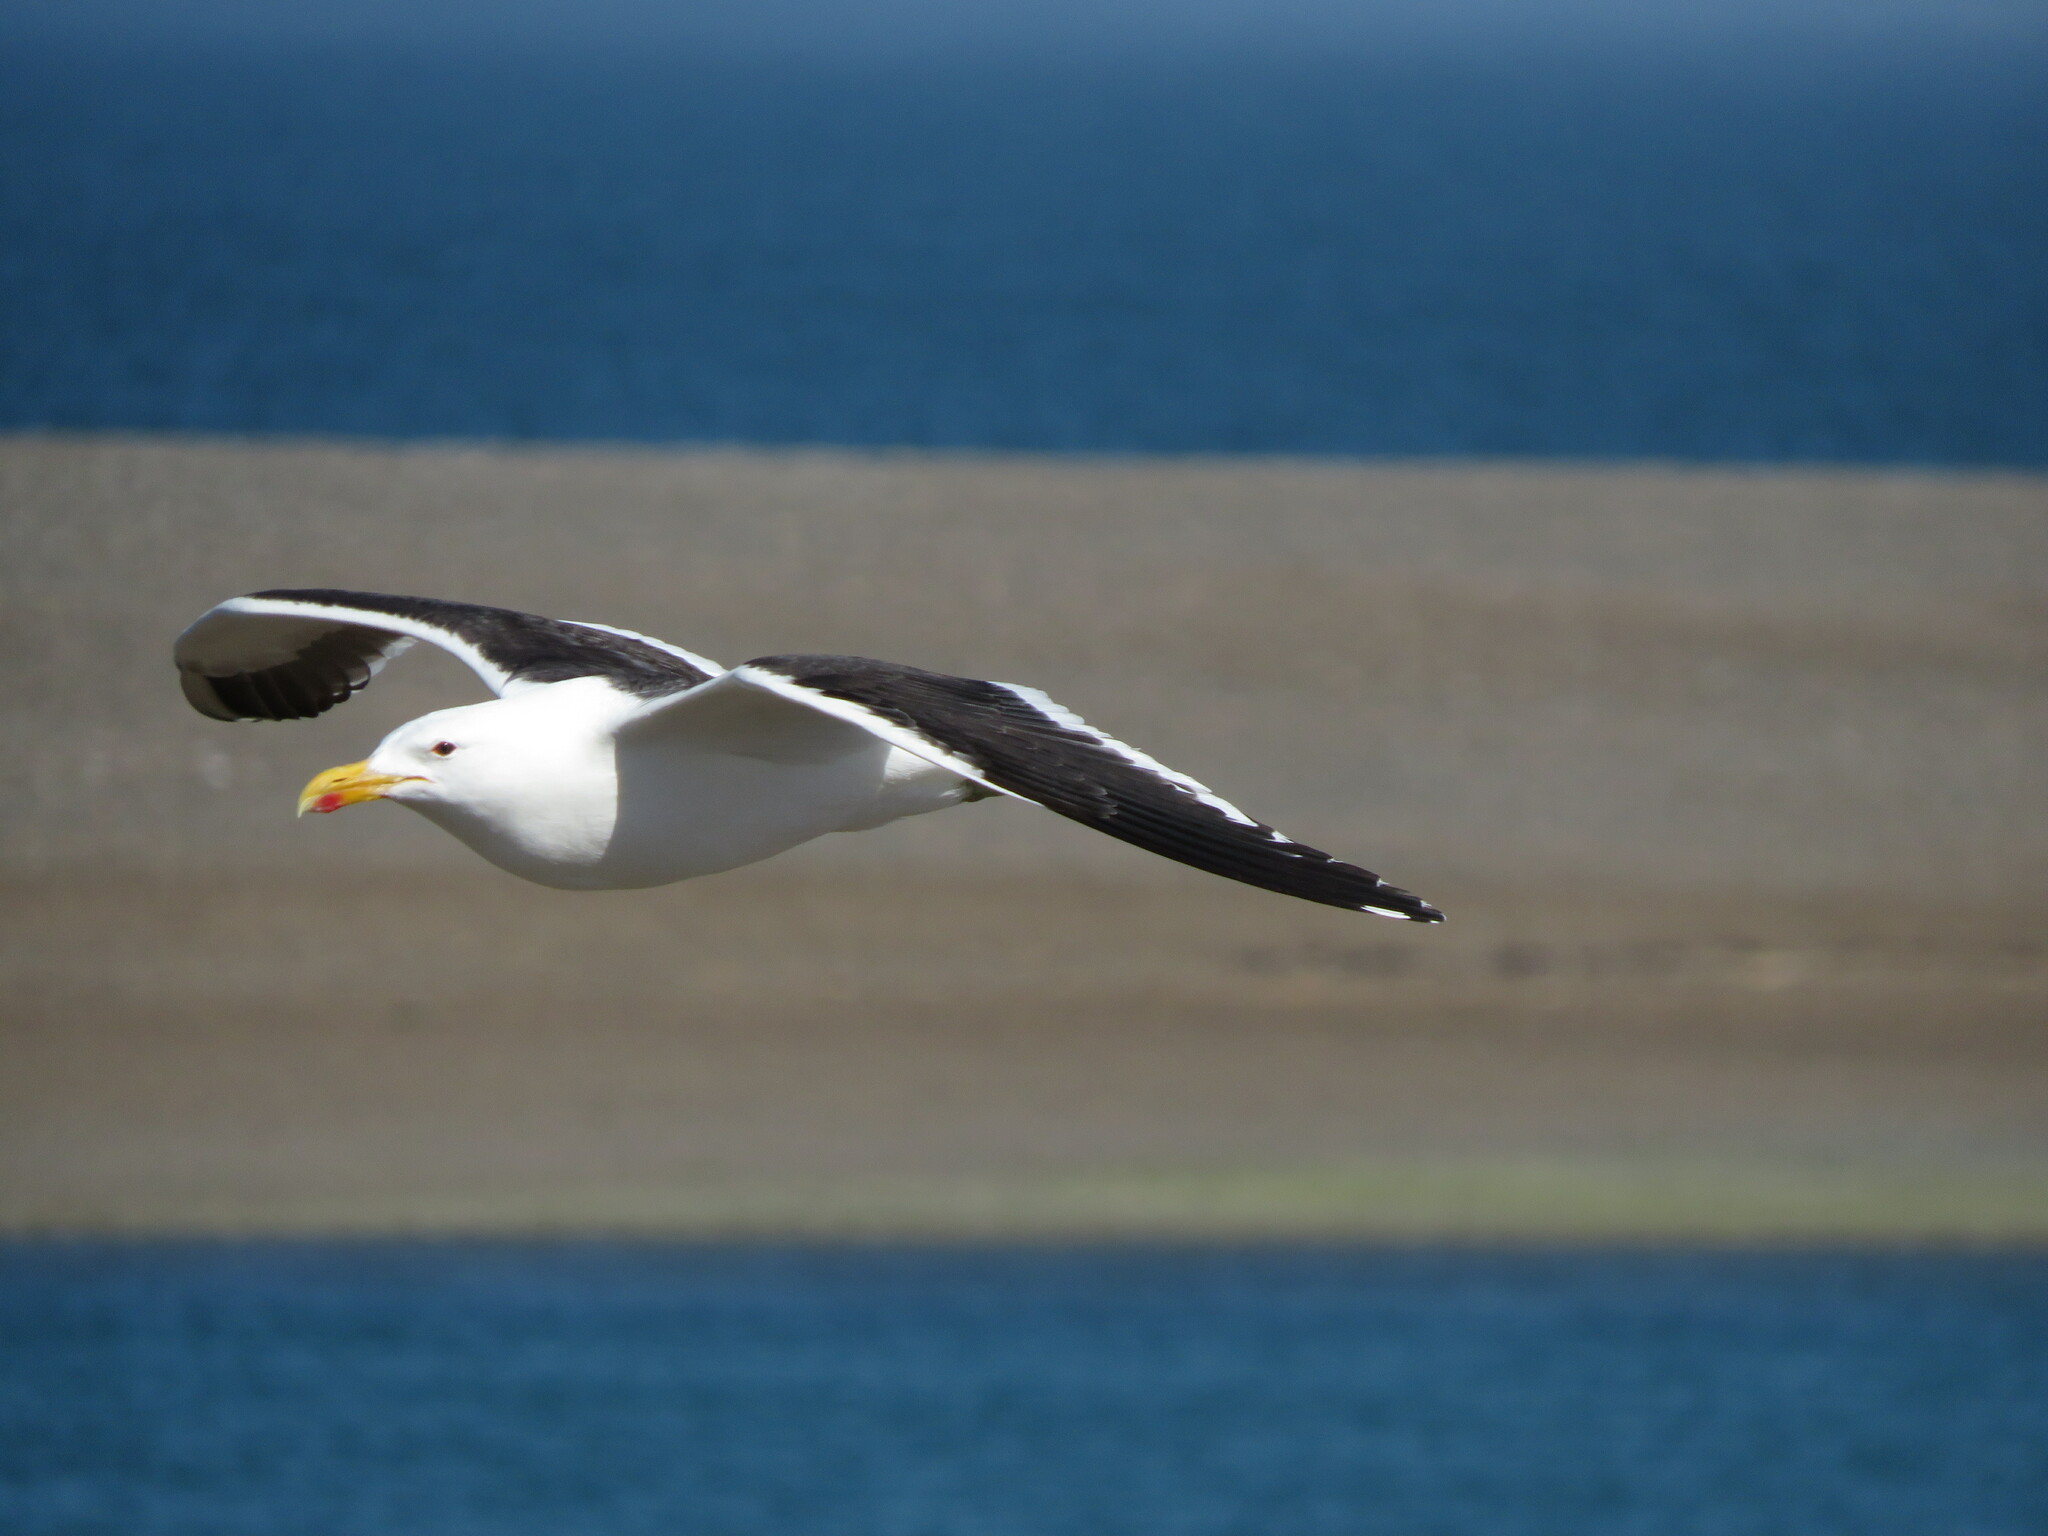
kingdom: Animalia
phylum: Chordata
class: Aves
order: Charadriiformes
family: Laridae
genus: Larus
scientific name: Larus dominicanus
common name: Kelp gull
